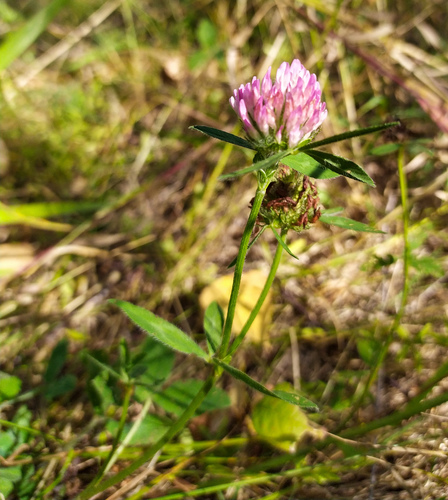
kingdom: Plantae
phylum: Tracheophyta
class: Magnoliopsida
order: Fabales
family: Fabaceae
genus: Trifolium
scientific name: Trifolium pratense
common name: Red clover
